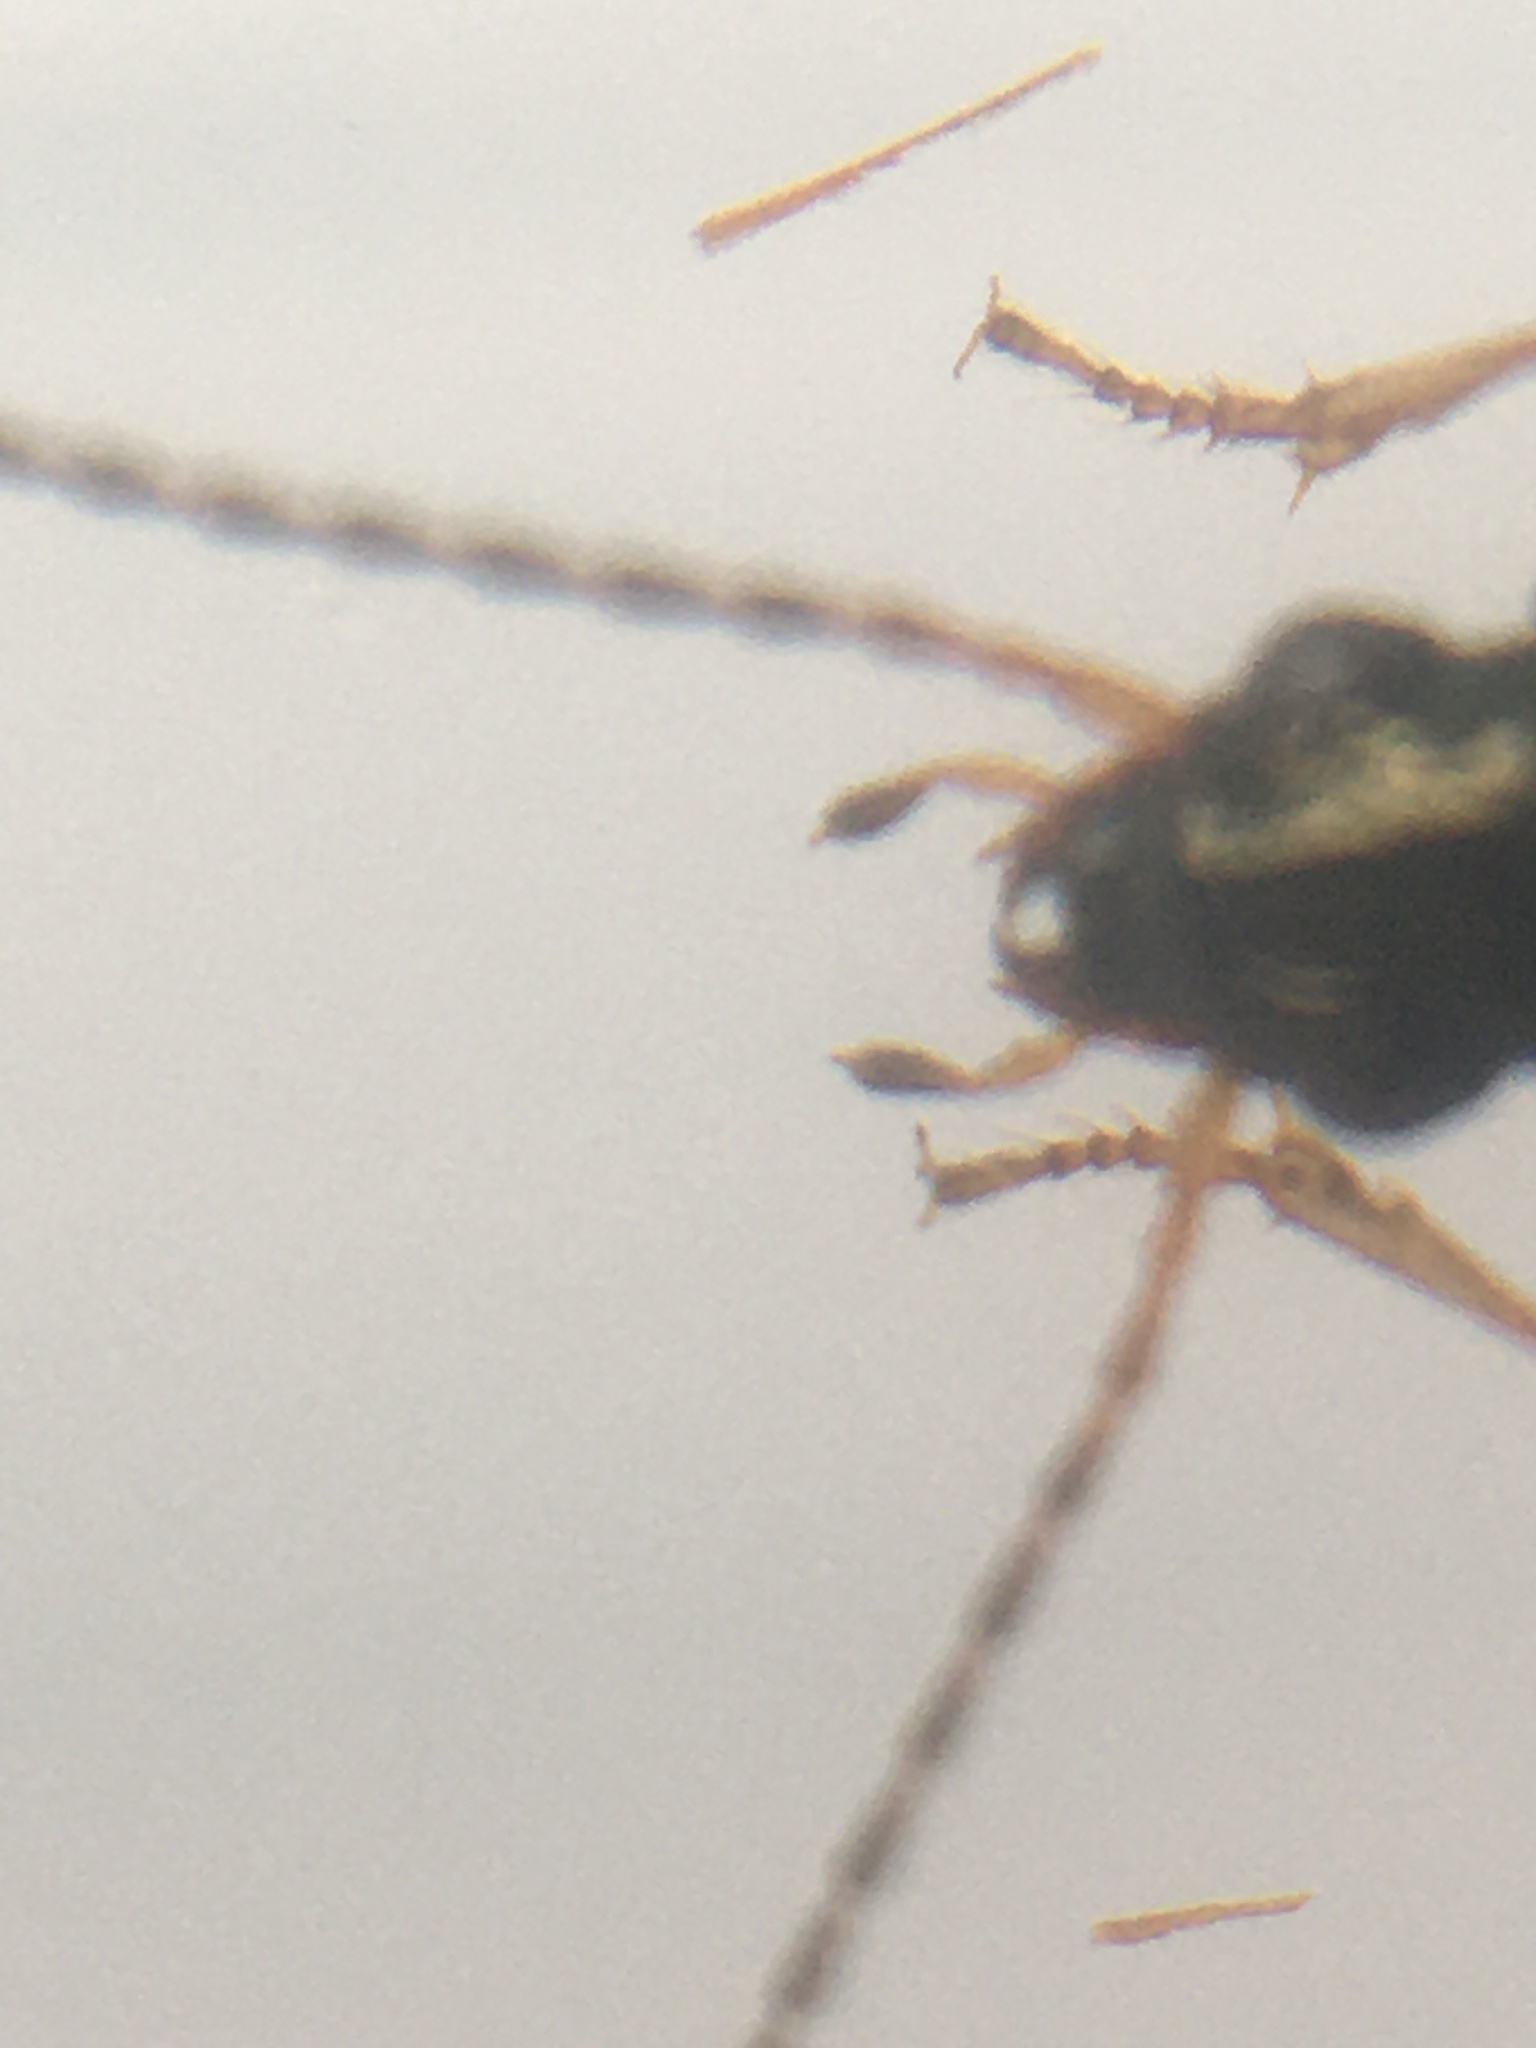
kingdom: Animalia
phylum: Arthropoda
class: Insecta
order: Coleoptera
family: Carabidae
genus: Bembidion
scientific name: Bembidion tetracolum
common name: Seine riverbank ground beetle
